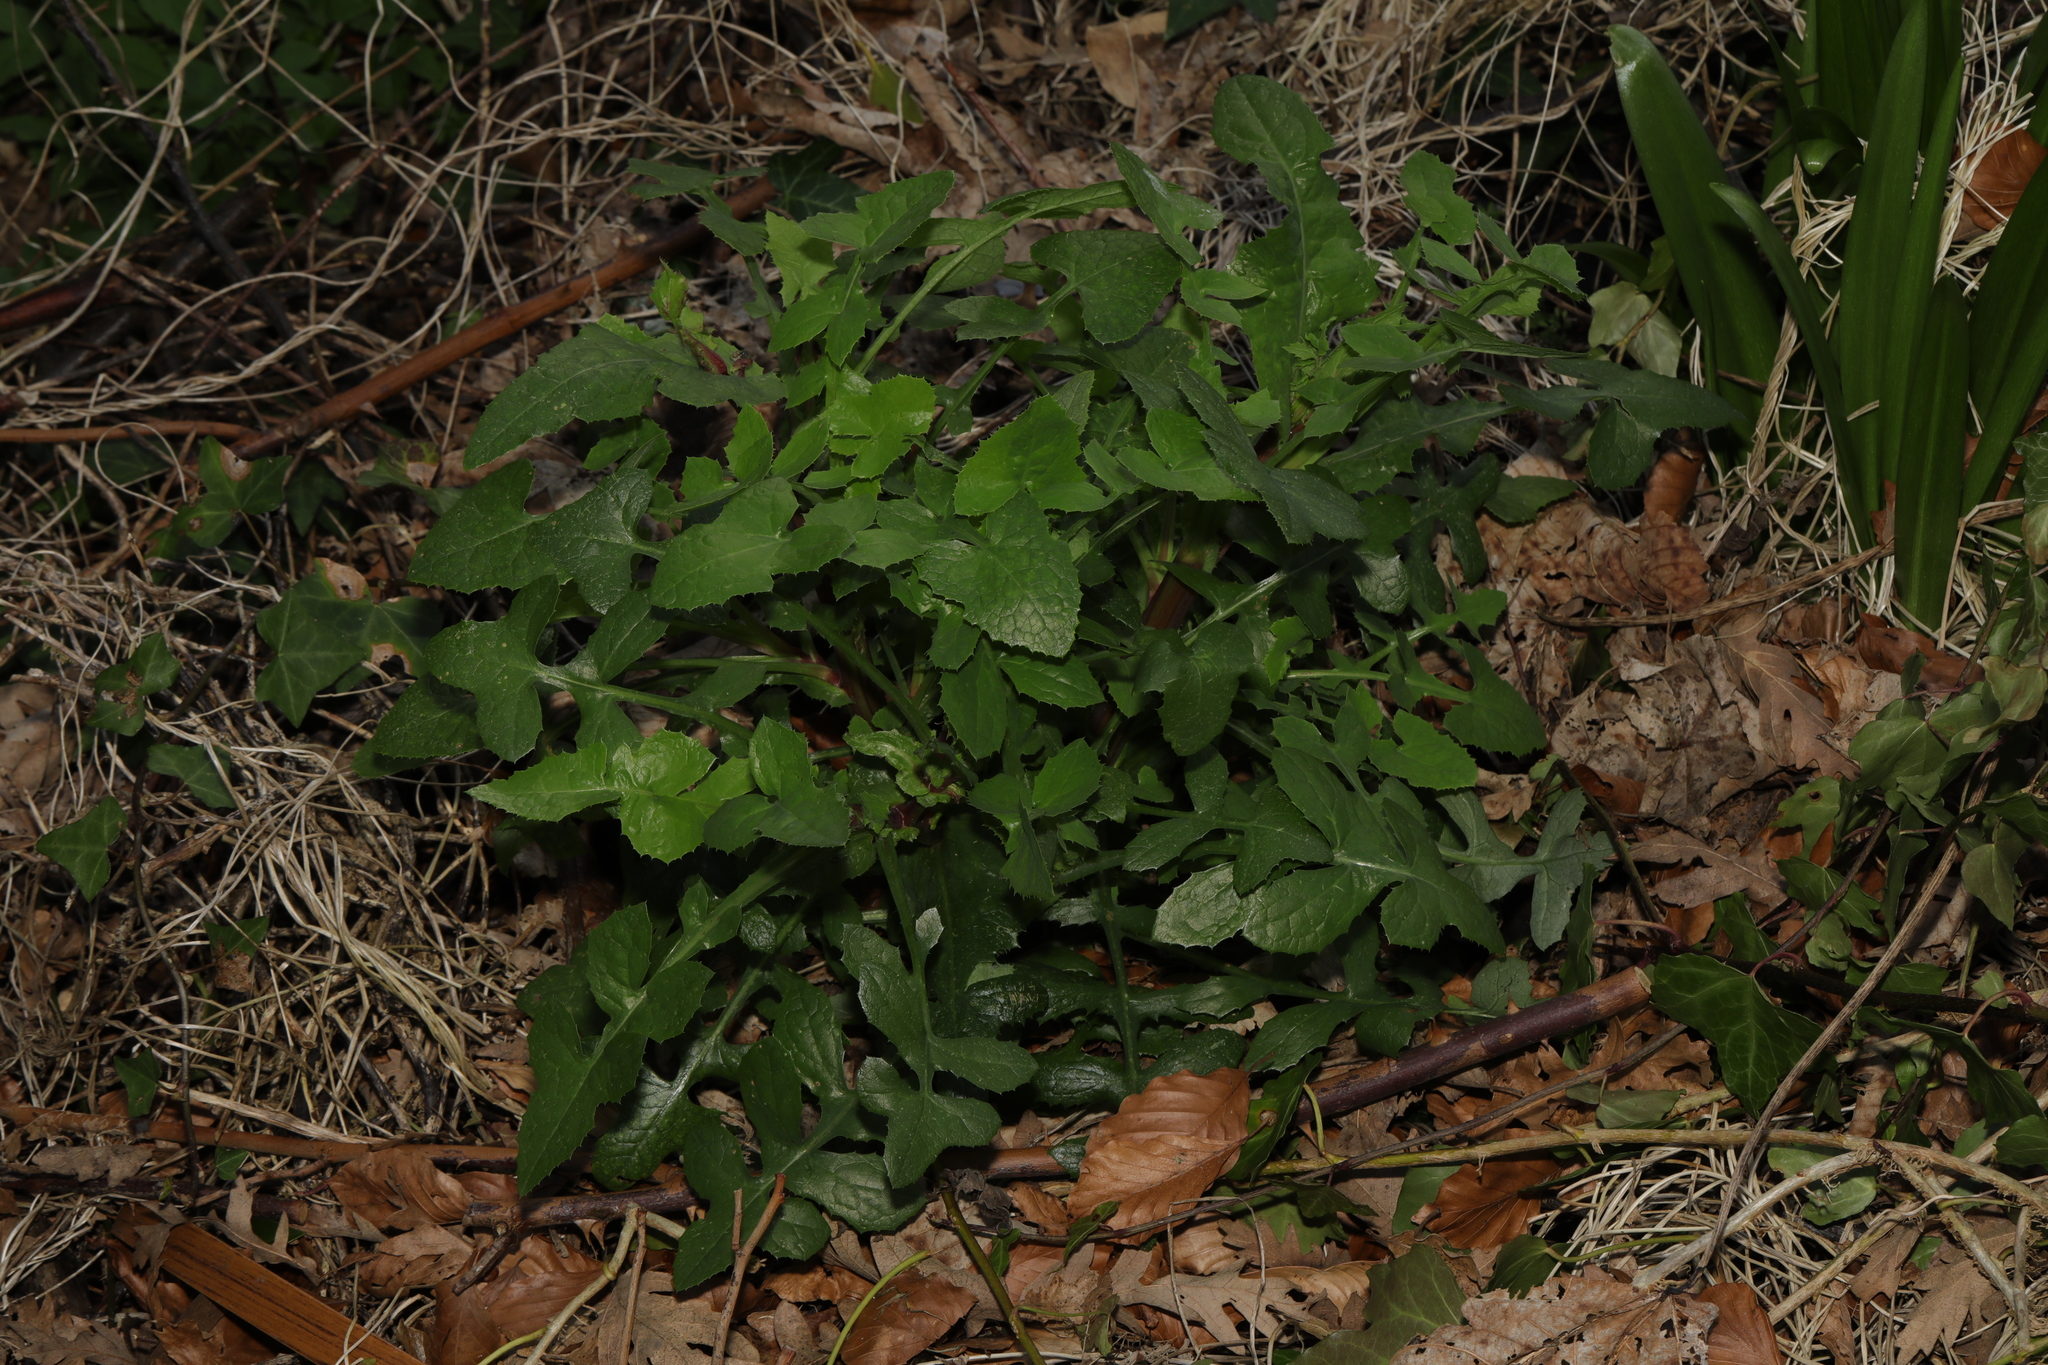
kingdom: Plantae
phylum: Tracheophyta
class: Magnoliopsida
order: Asterales
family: Asteraceae
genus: Sonchus
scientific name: Sonchus oleraceus
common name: Common sowthistle
